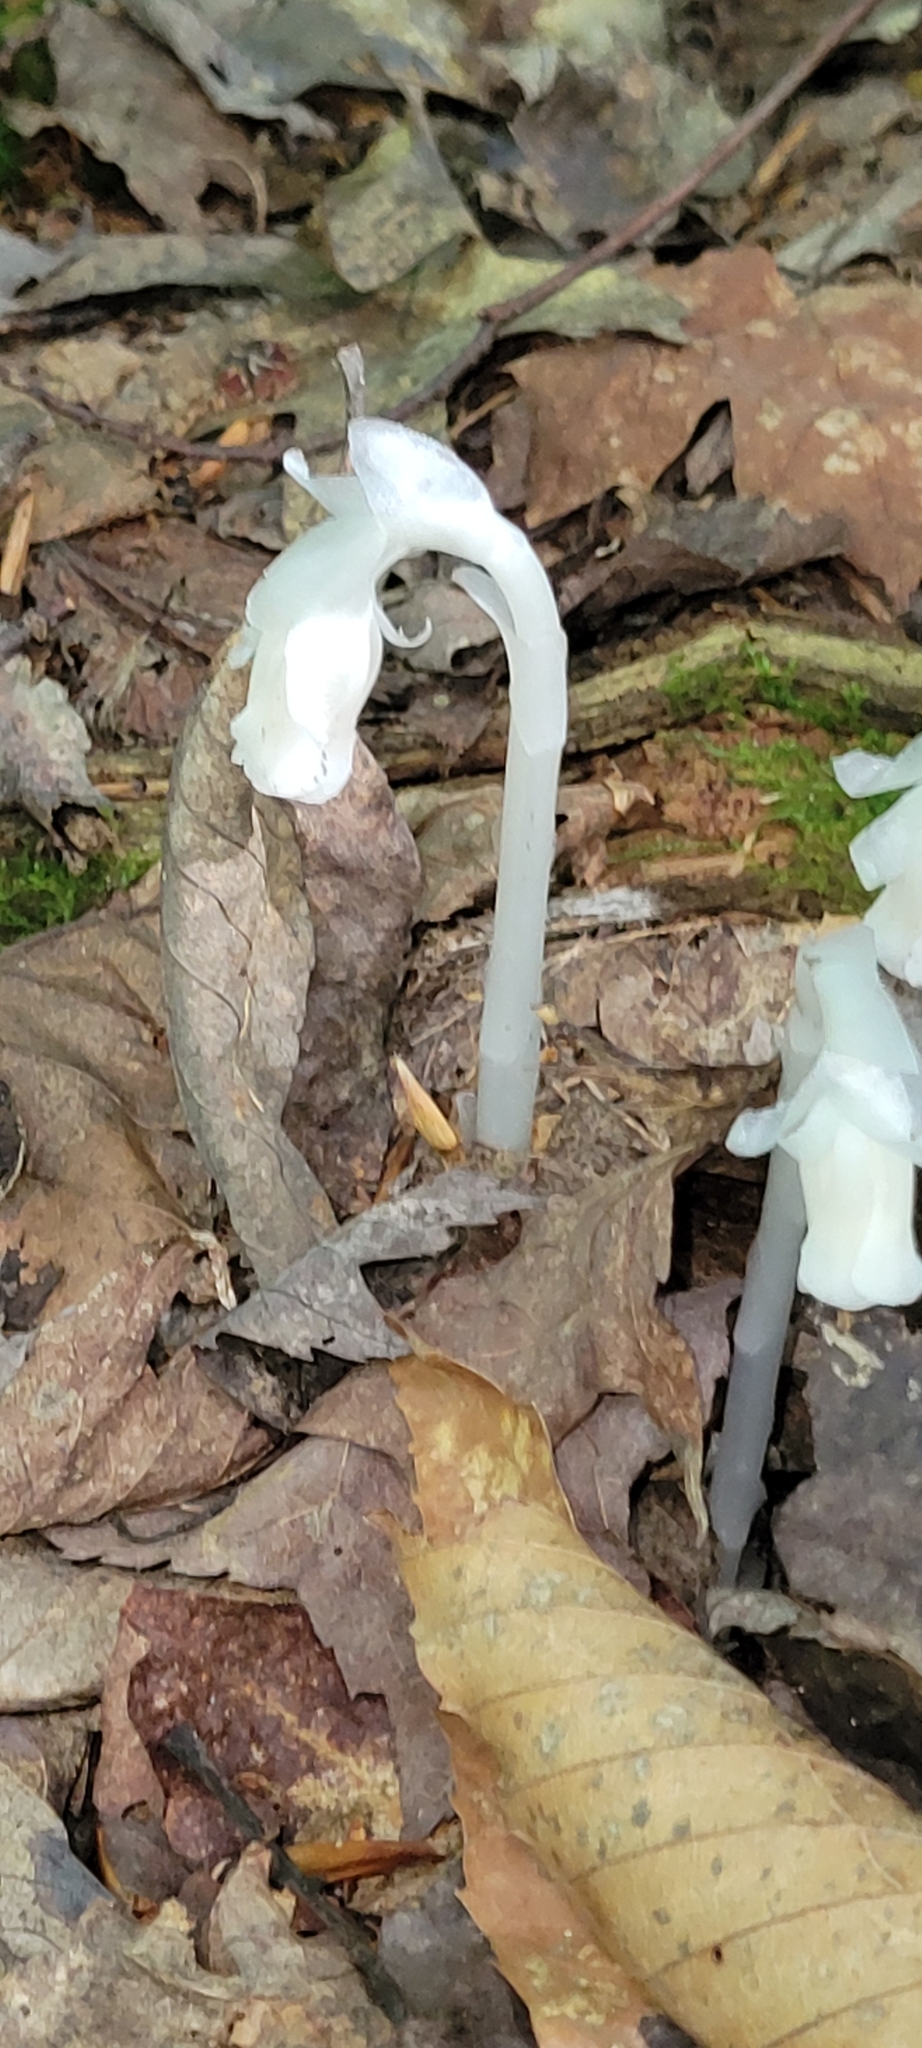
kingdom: Plantae
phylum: Tracheophyta
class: Magnoliopsida
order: Ericales
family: Ericaceae
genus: Monotropa
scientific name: Monotropa uniflora
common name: Convulsion root
